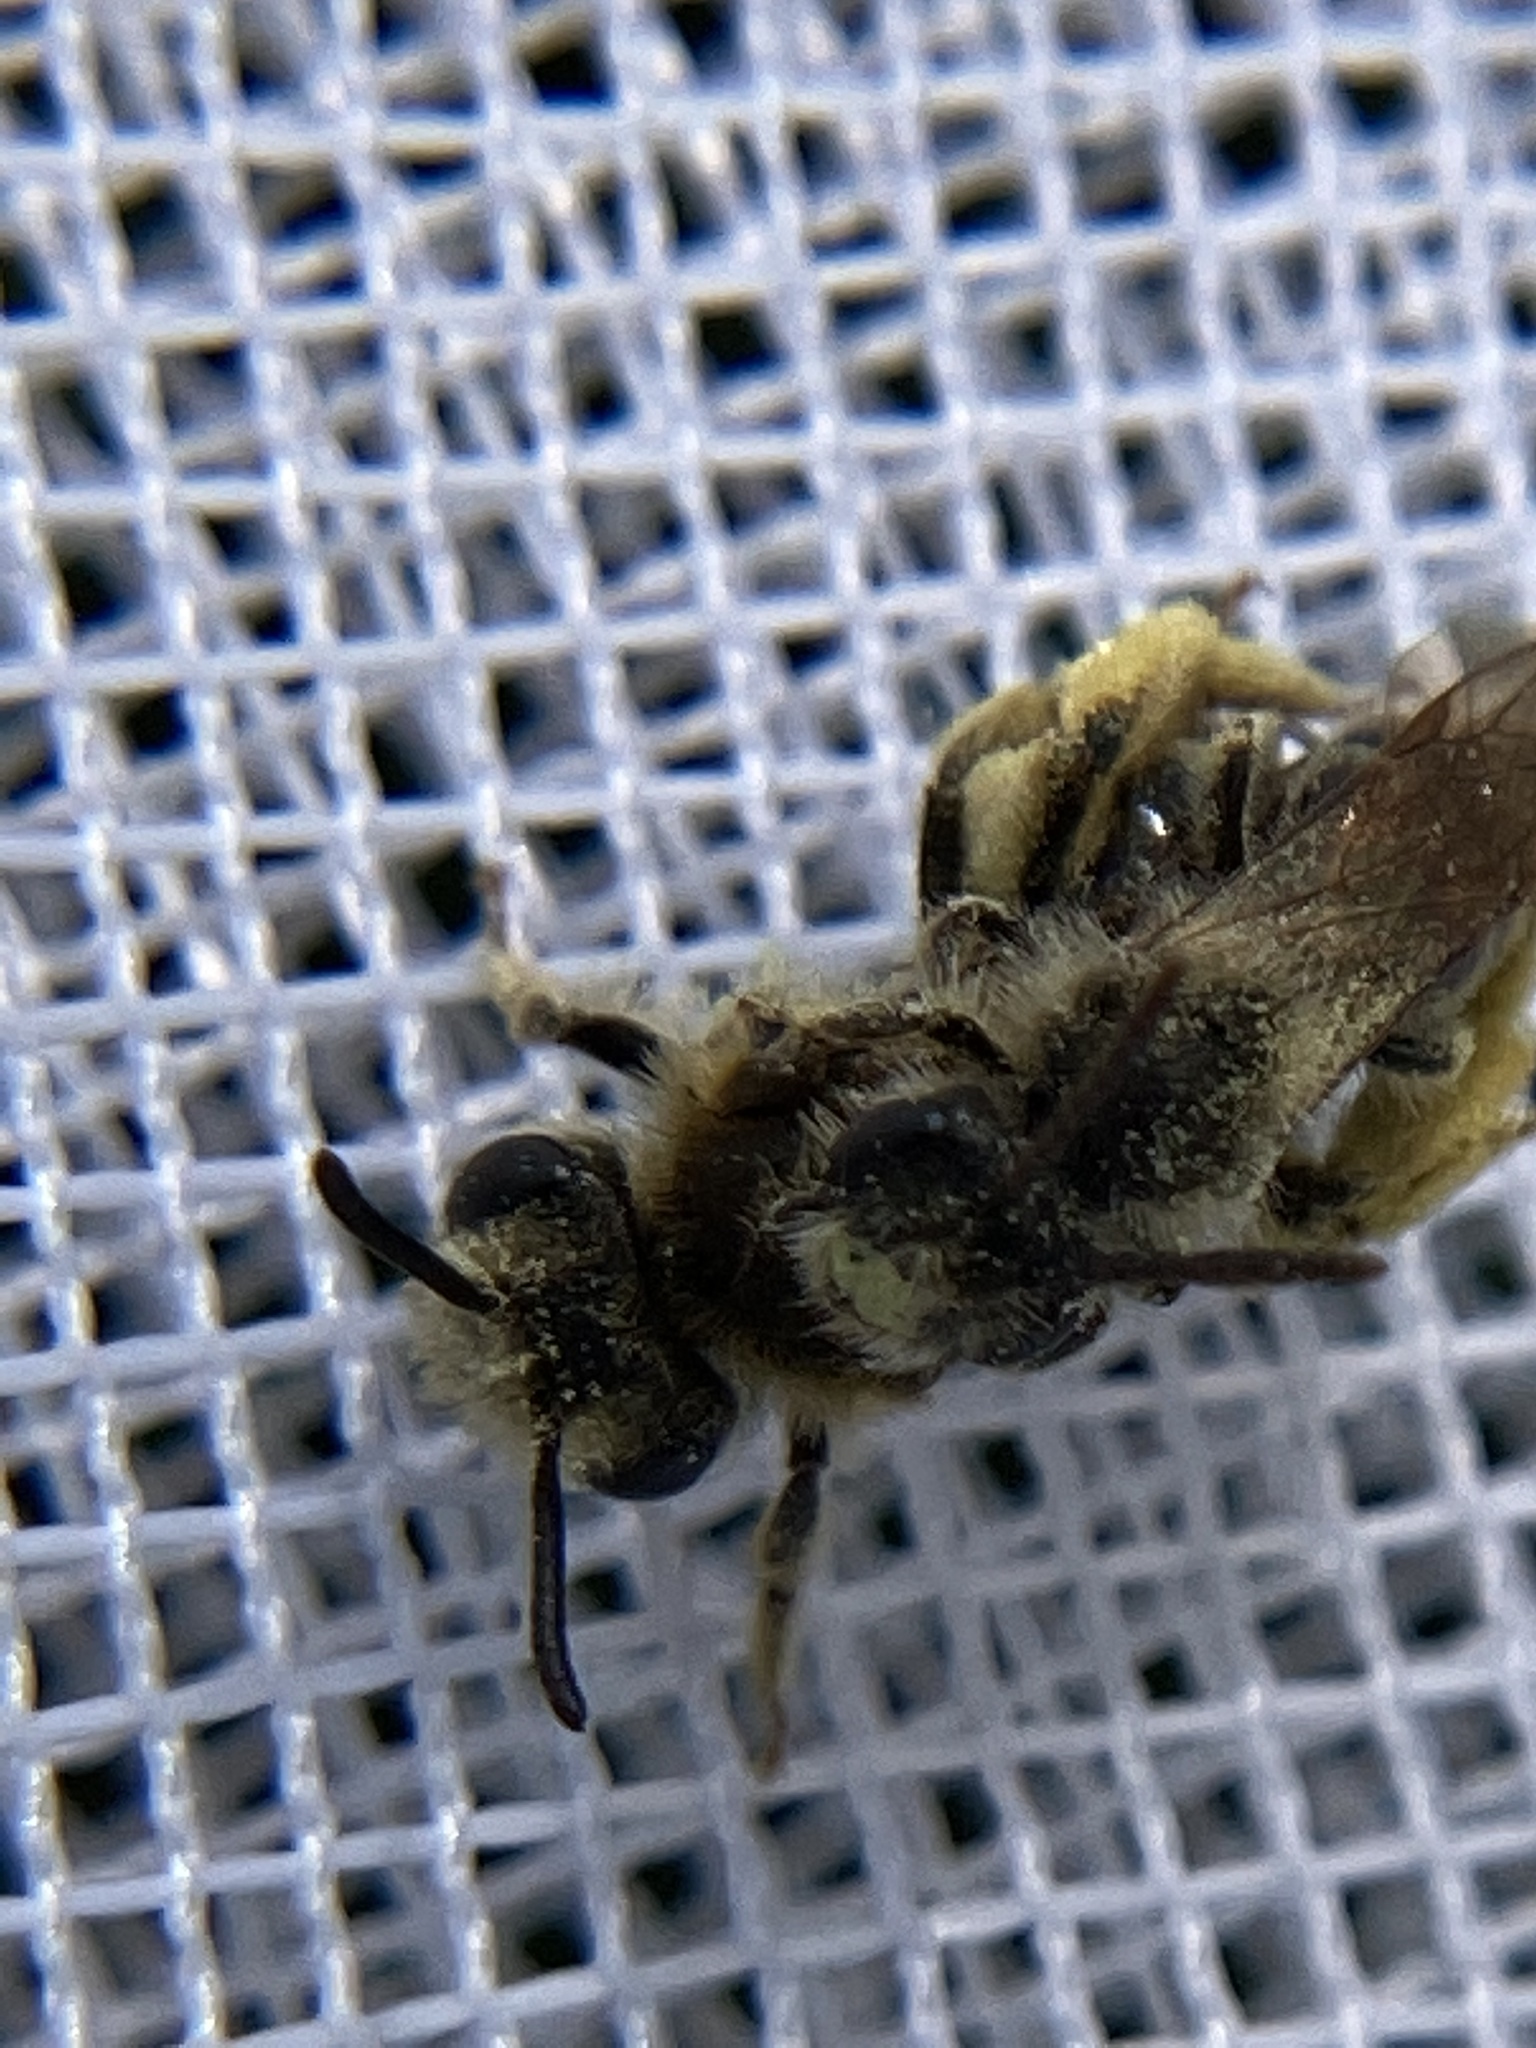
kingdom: Animalia
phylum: Arthropoda
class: Insecta
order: Hymenoptera
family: Andrenidae
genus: Andrena
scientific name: Andrena miserabilis
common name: Miserable mining bee
